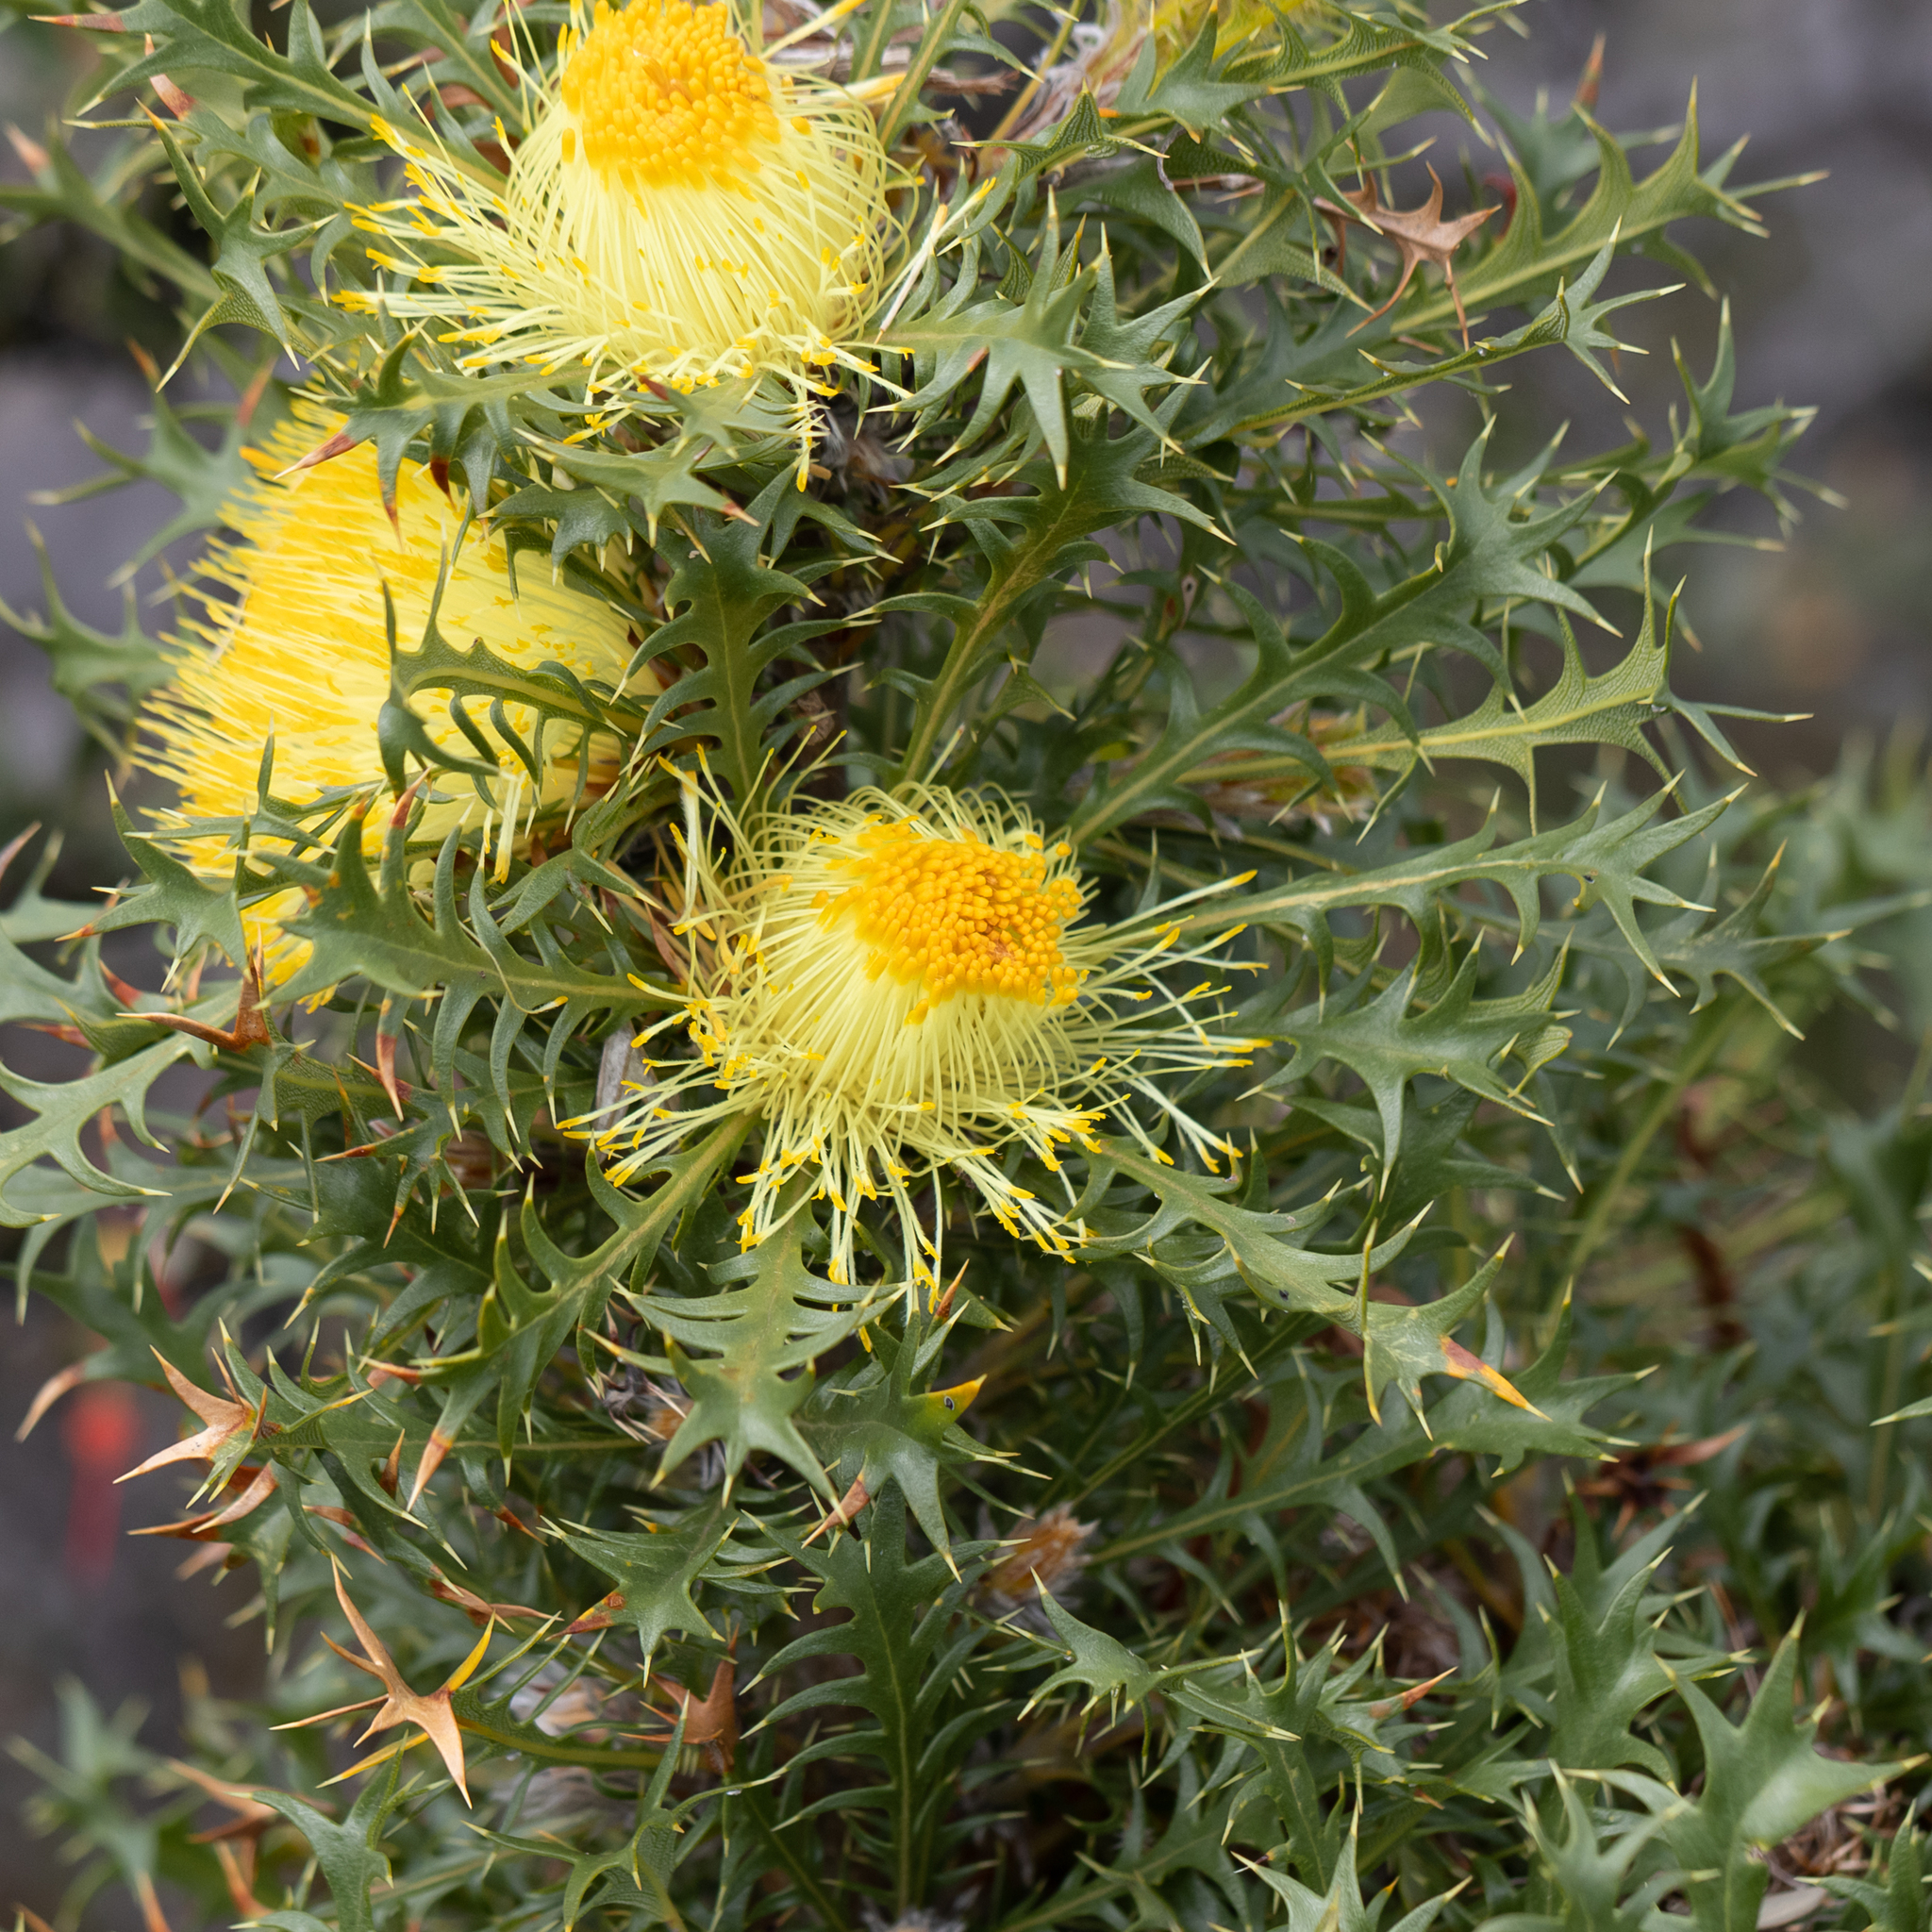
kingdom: Plantae
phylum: Tracheophyta
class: Magnoliopsida
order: Proteales
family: Proteaceae
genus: Banksia
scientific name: Banksia falcata
